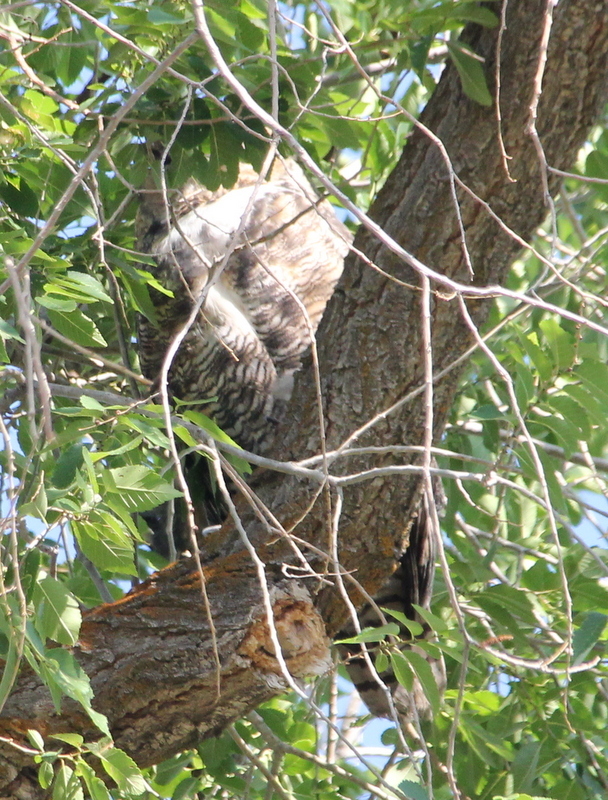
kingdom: Animalia
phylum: Chordata
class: Aves
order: Strigiformes
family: Strigidae
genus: Bubo
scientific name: Bubo virginianus
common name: Great horned owl
